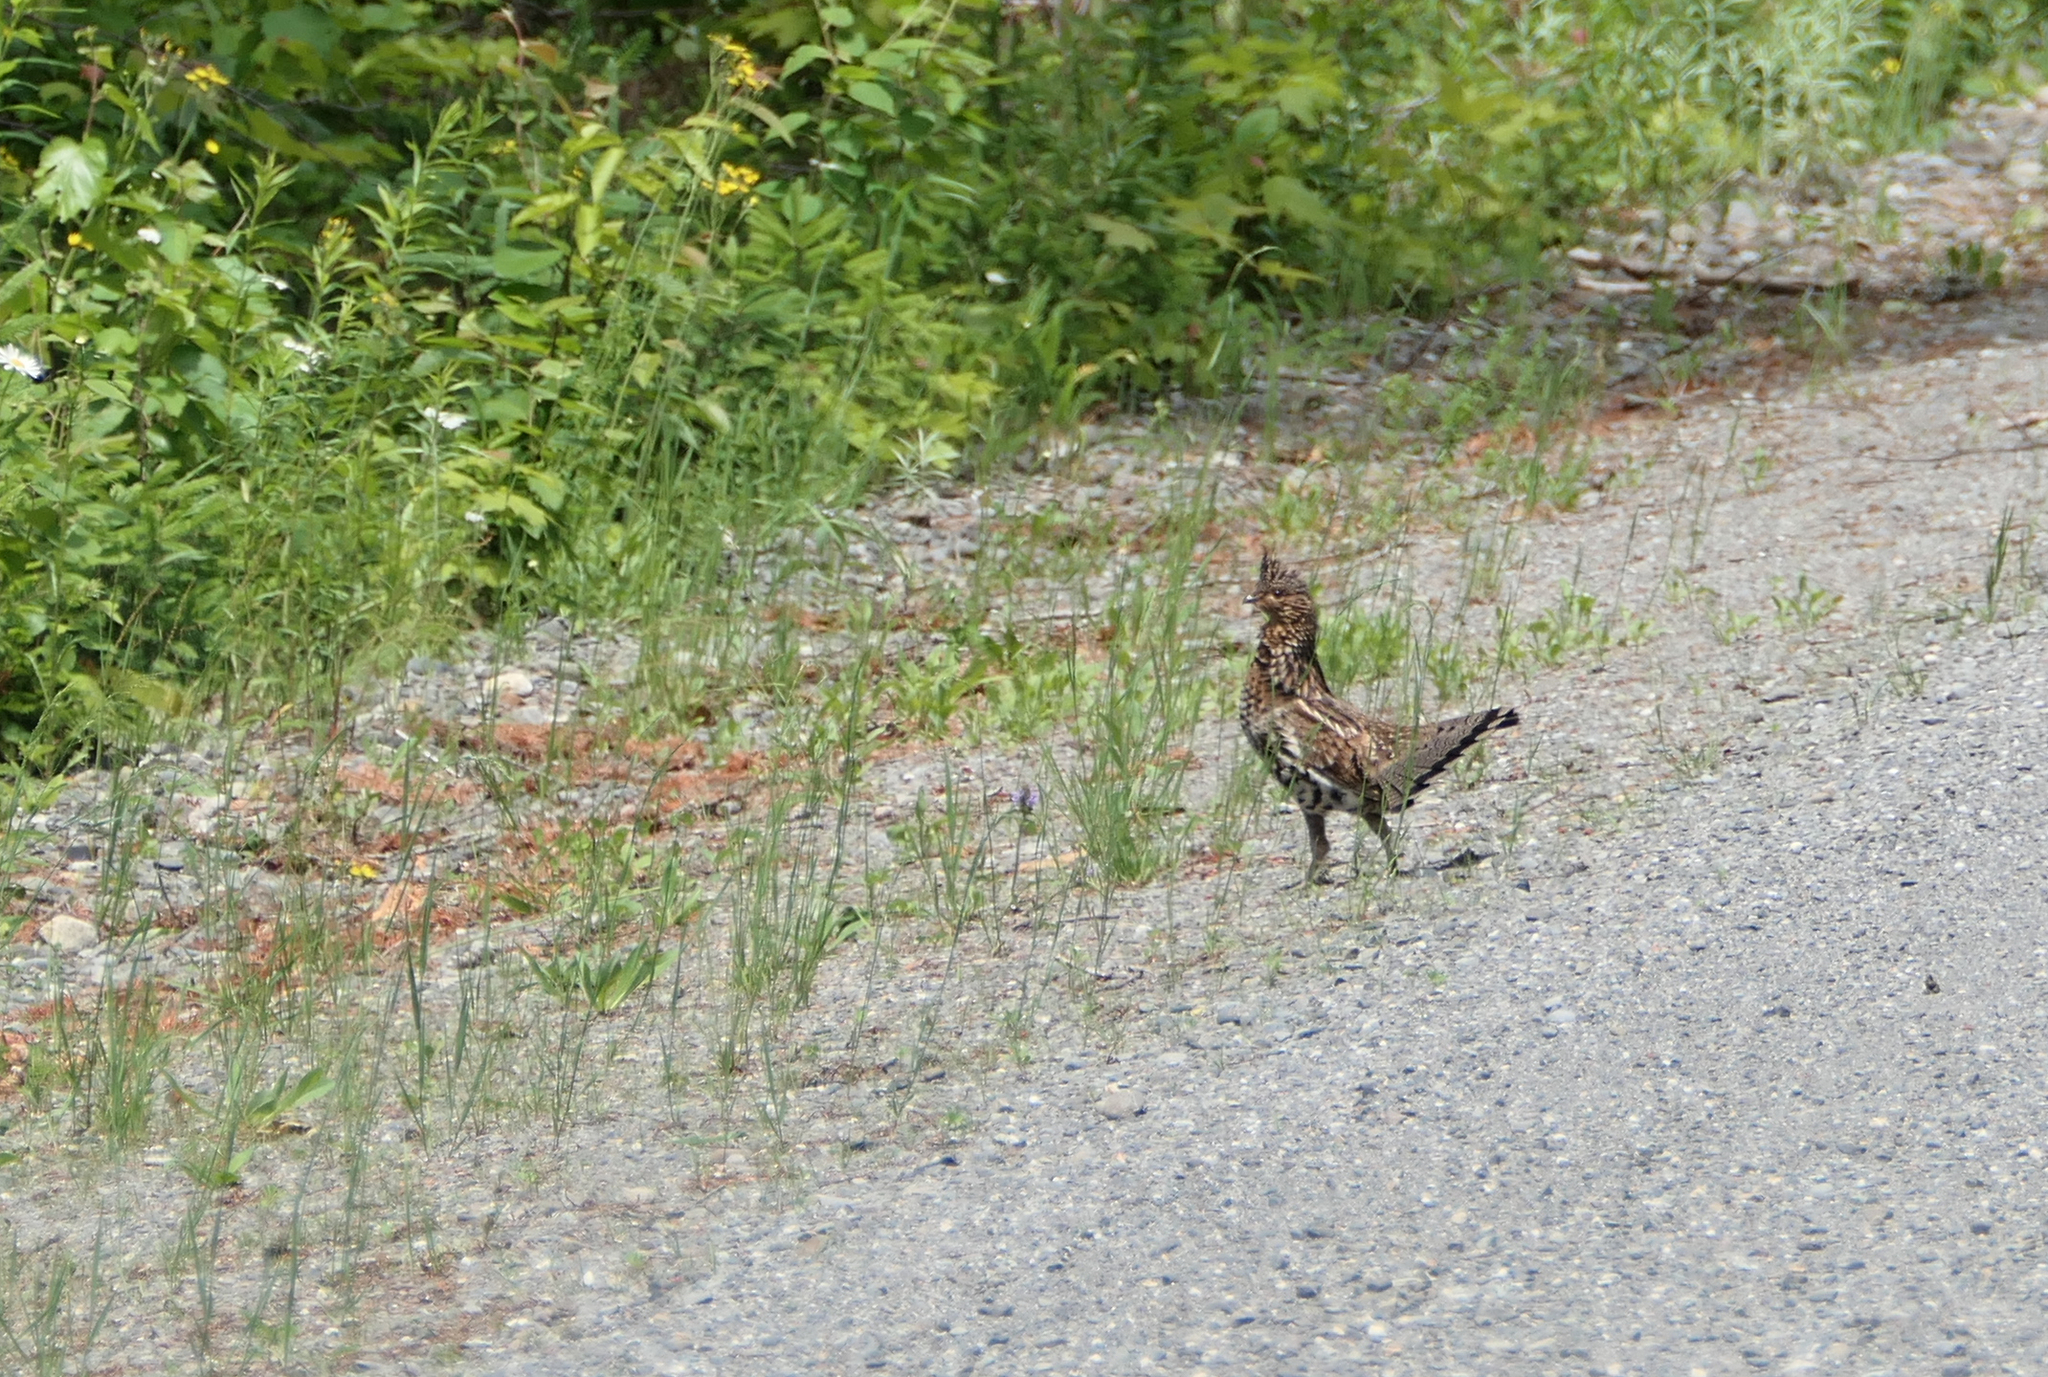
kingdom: Animalia
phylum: Chordata
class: Aves
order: Galliformes
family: Phasianidae
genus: Bonasa
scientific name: Bonasa umbellus
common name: Ruffed grouse
